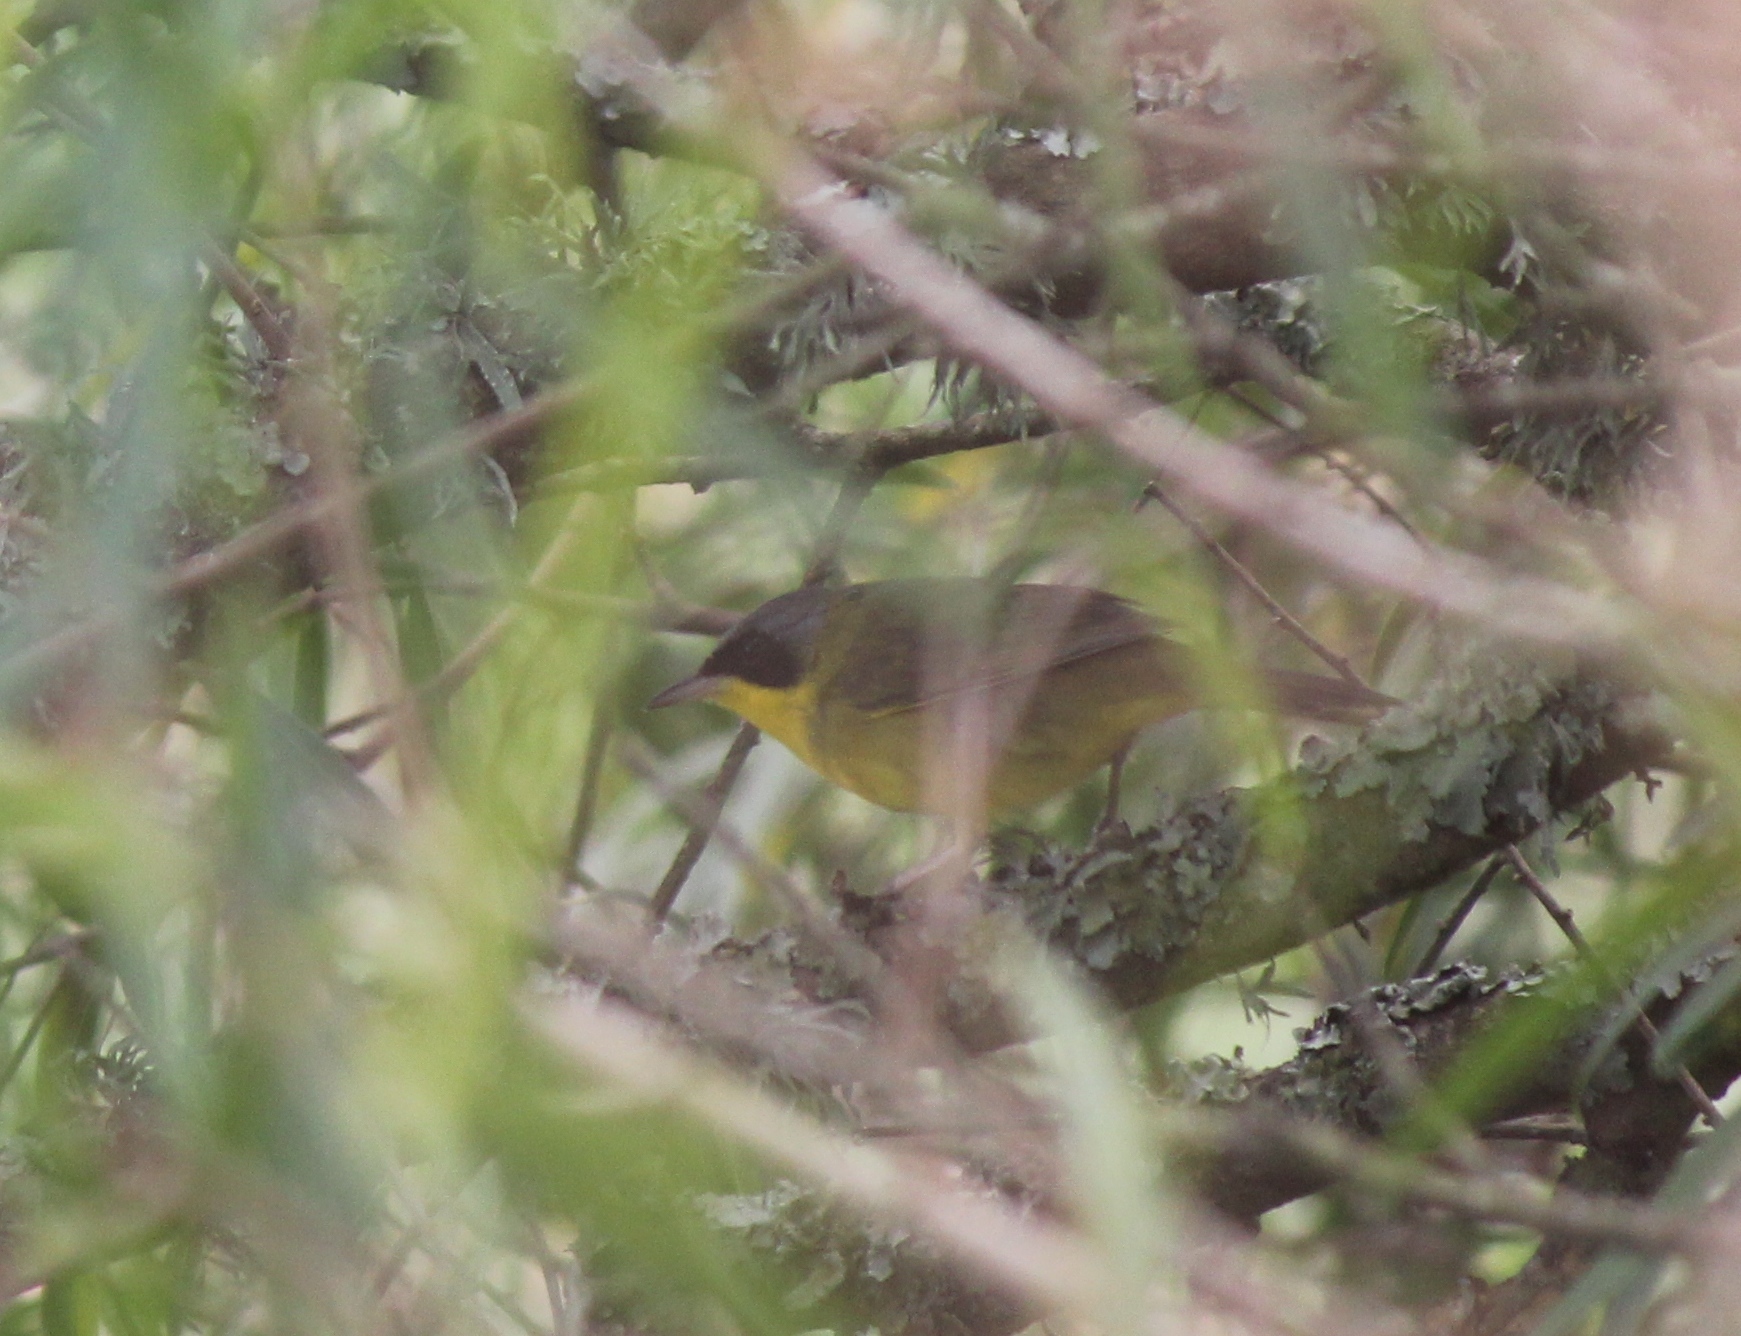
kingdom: Animalia
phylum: Chordata
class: Aves
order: Passeriformes
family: Parulidae
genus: Geothlypis
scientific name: Geothlypis velata
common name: Southern yellowthroat
